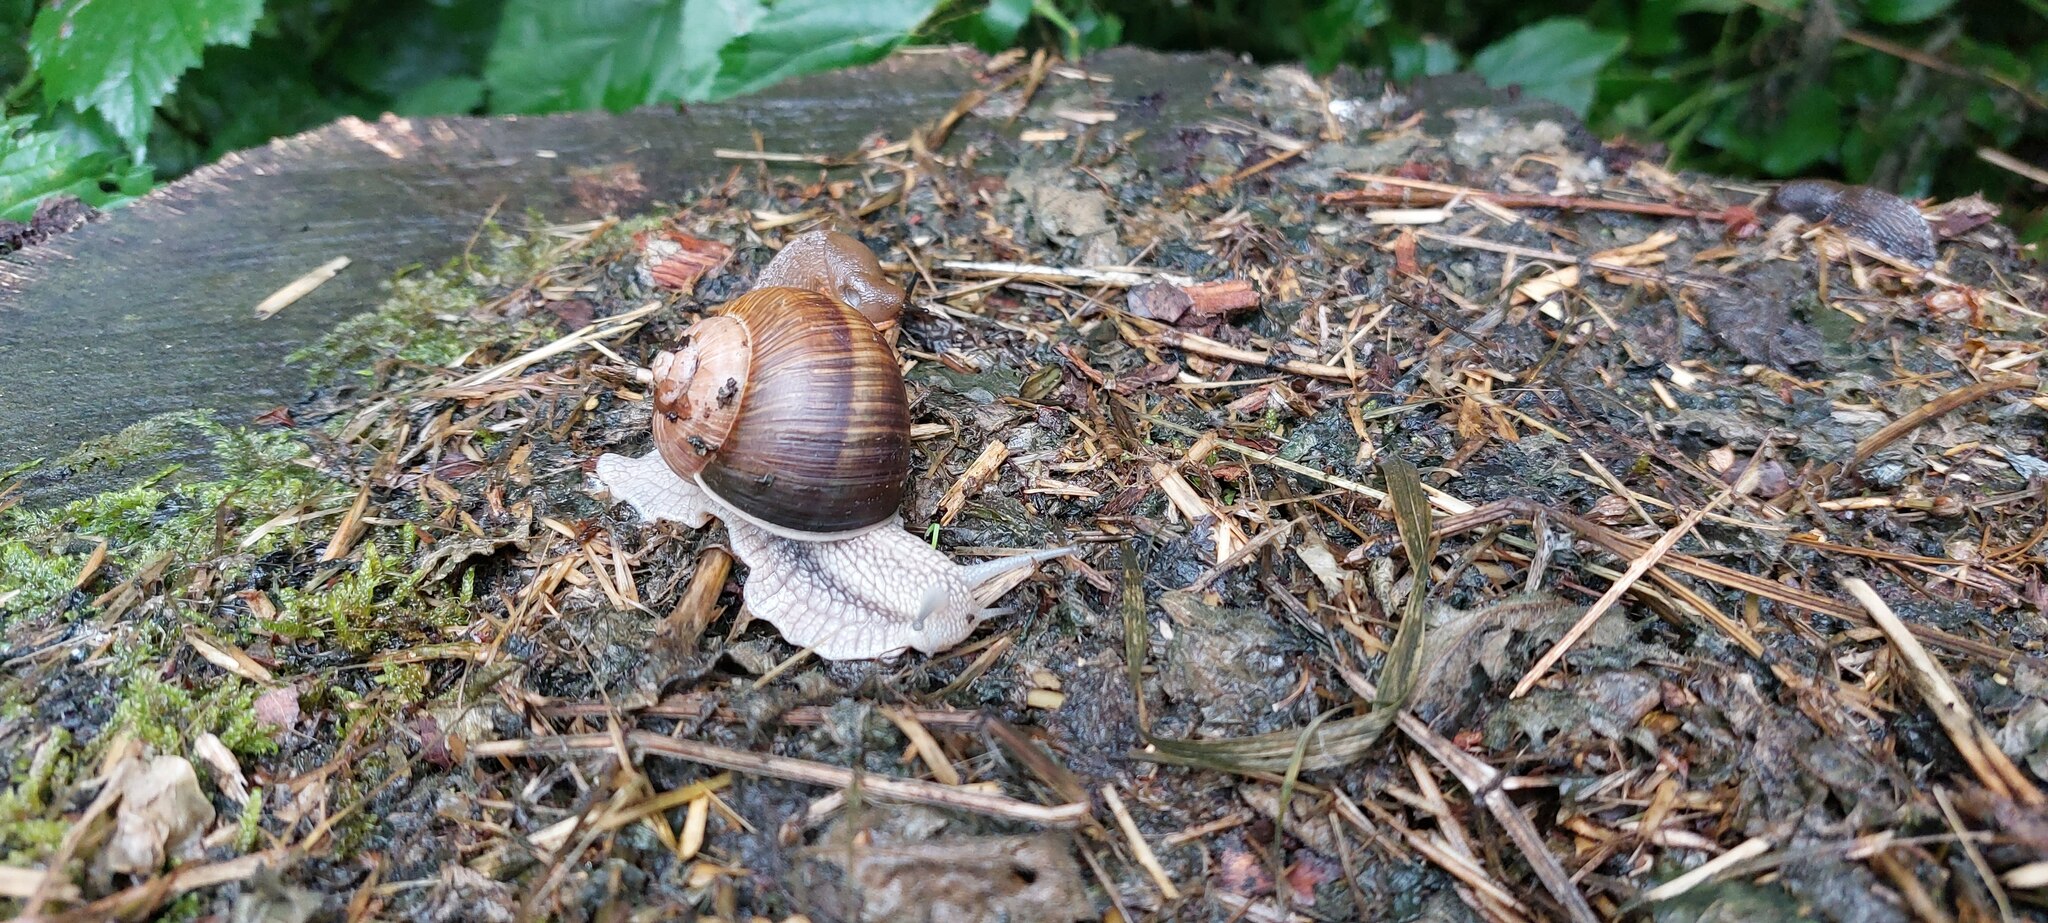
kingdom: Animalia
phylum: Mollusca
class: Gastropoda
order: Stylommatophora
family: Helicidae
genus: Helix
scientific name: Helix pomatia
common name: Roman snail
